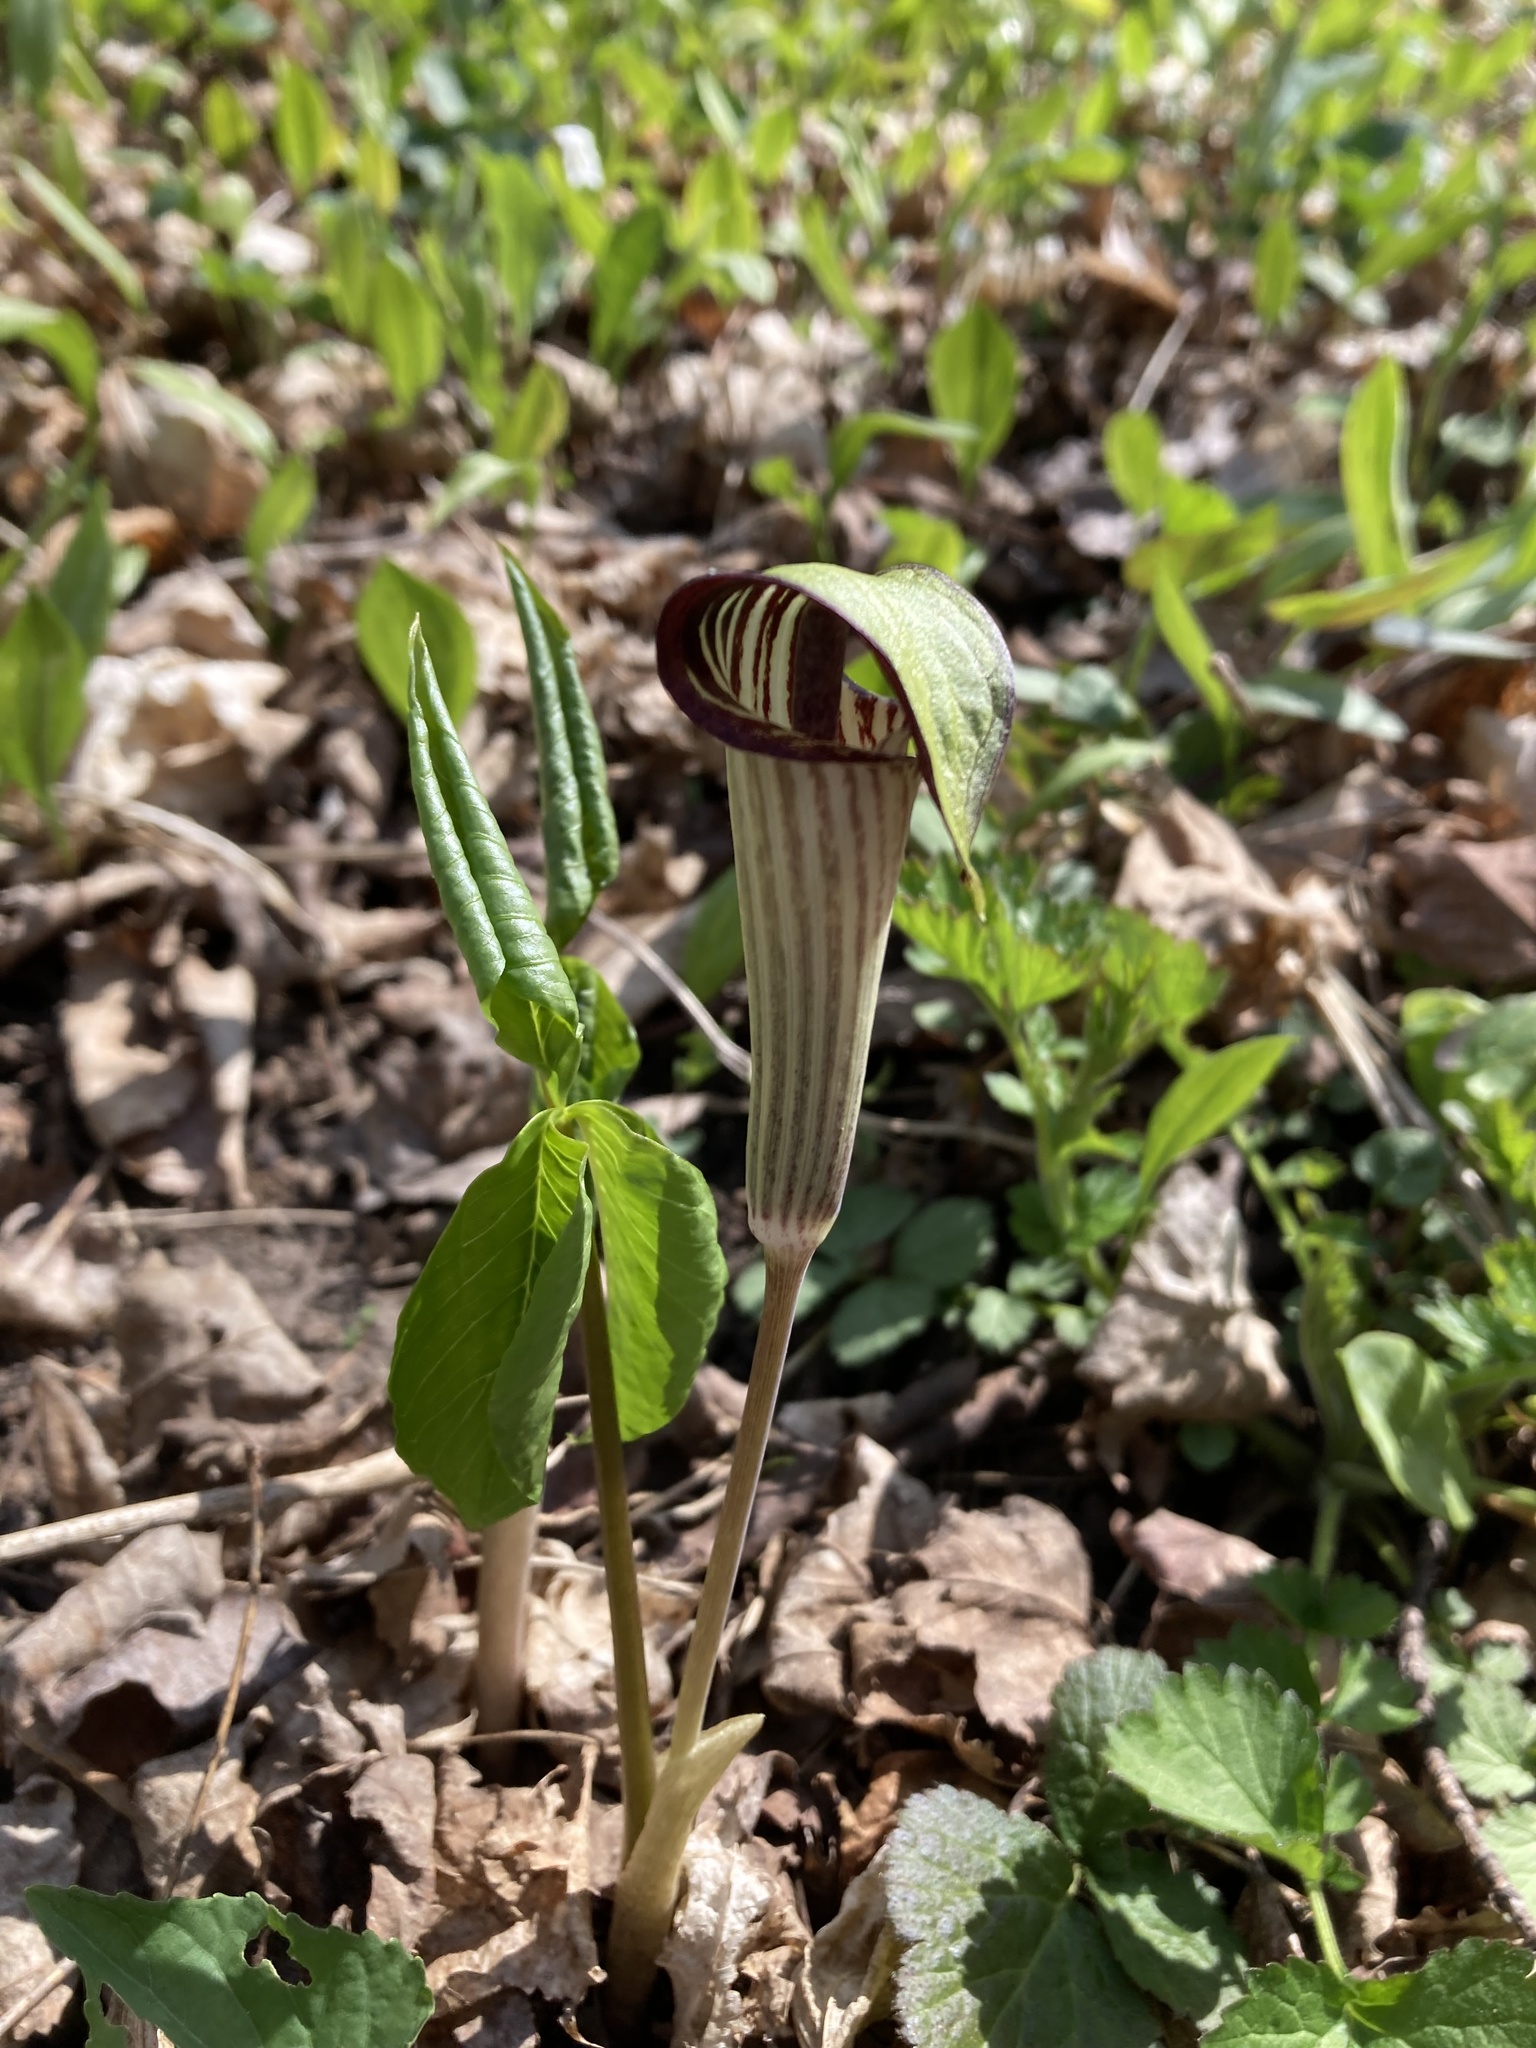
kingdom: Plantae
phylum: Tracheophyta
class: Liliopsida
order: Alismatales
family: Araceae
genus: Arisaema
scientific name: Arisaema triphyllum
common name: Jack-in-the-pulpit
